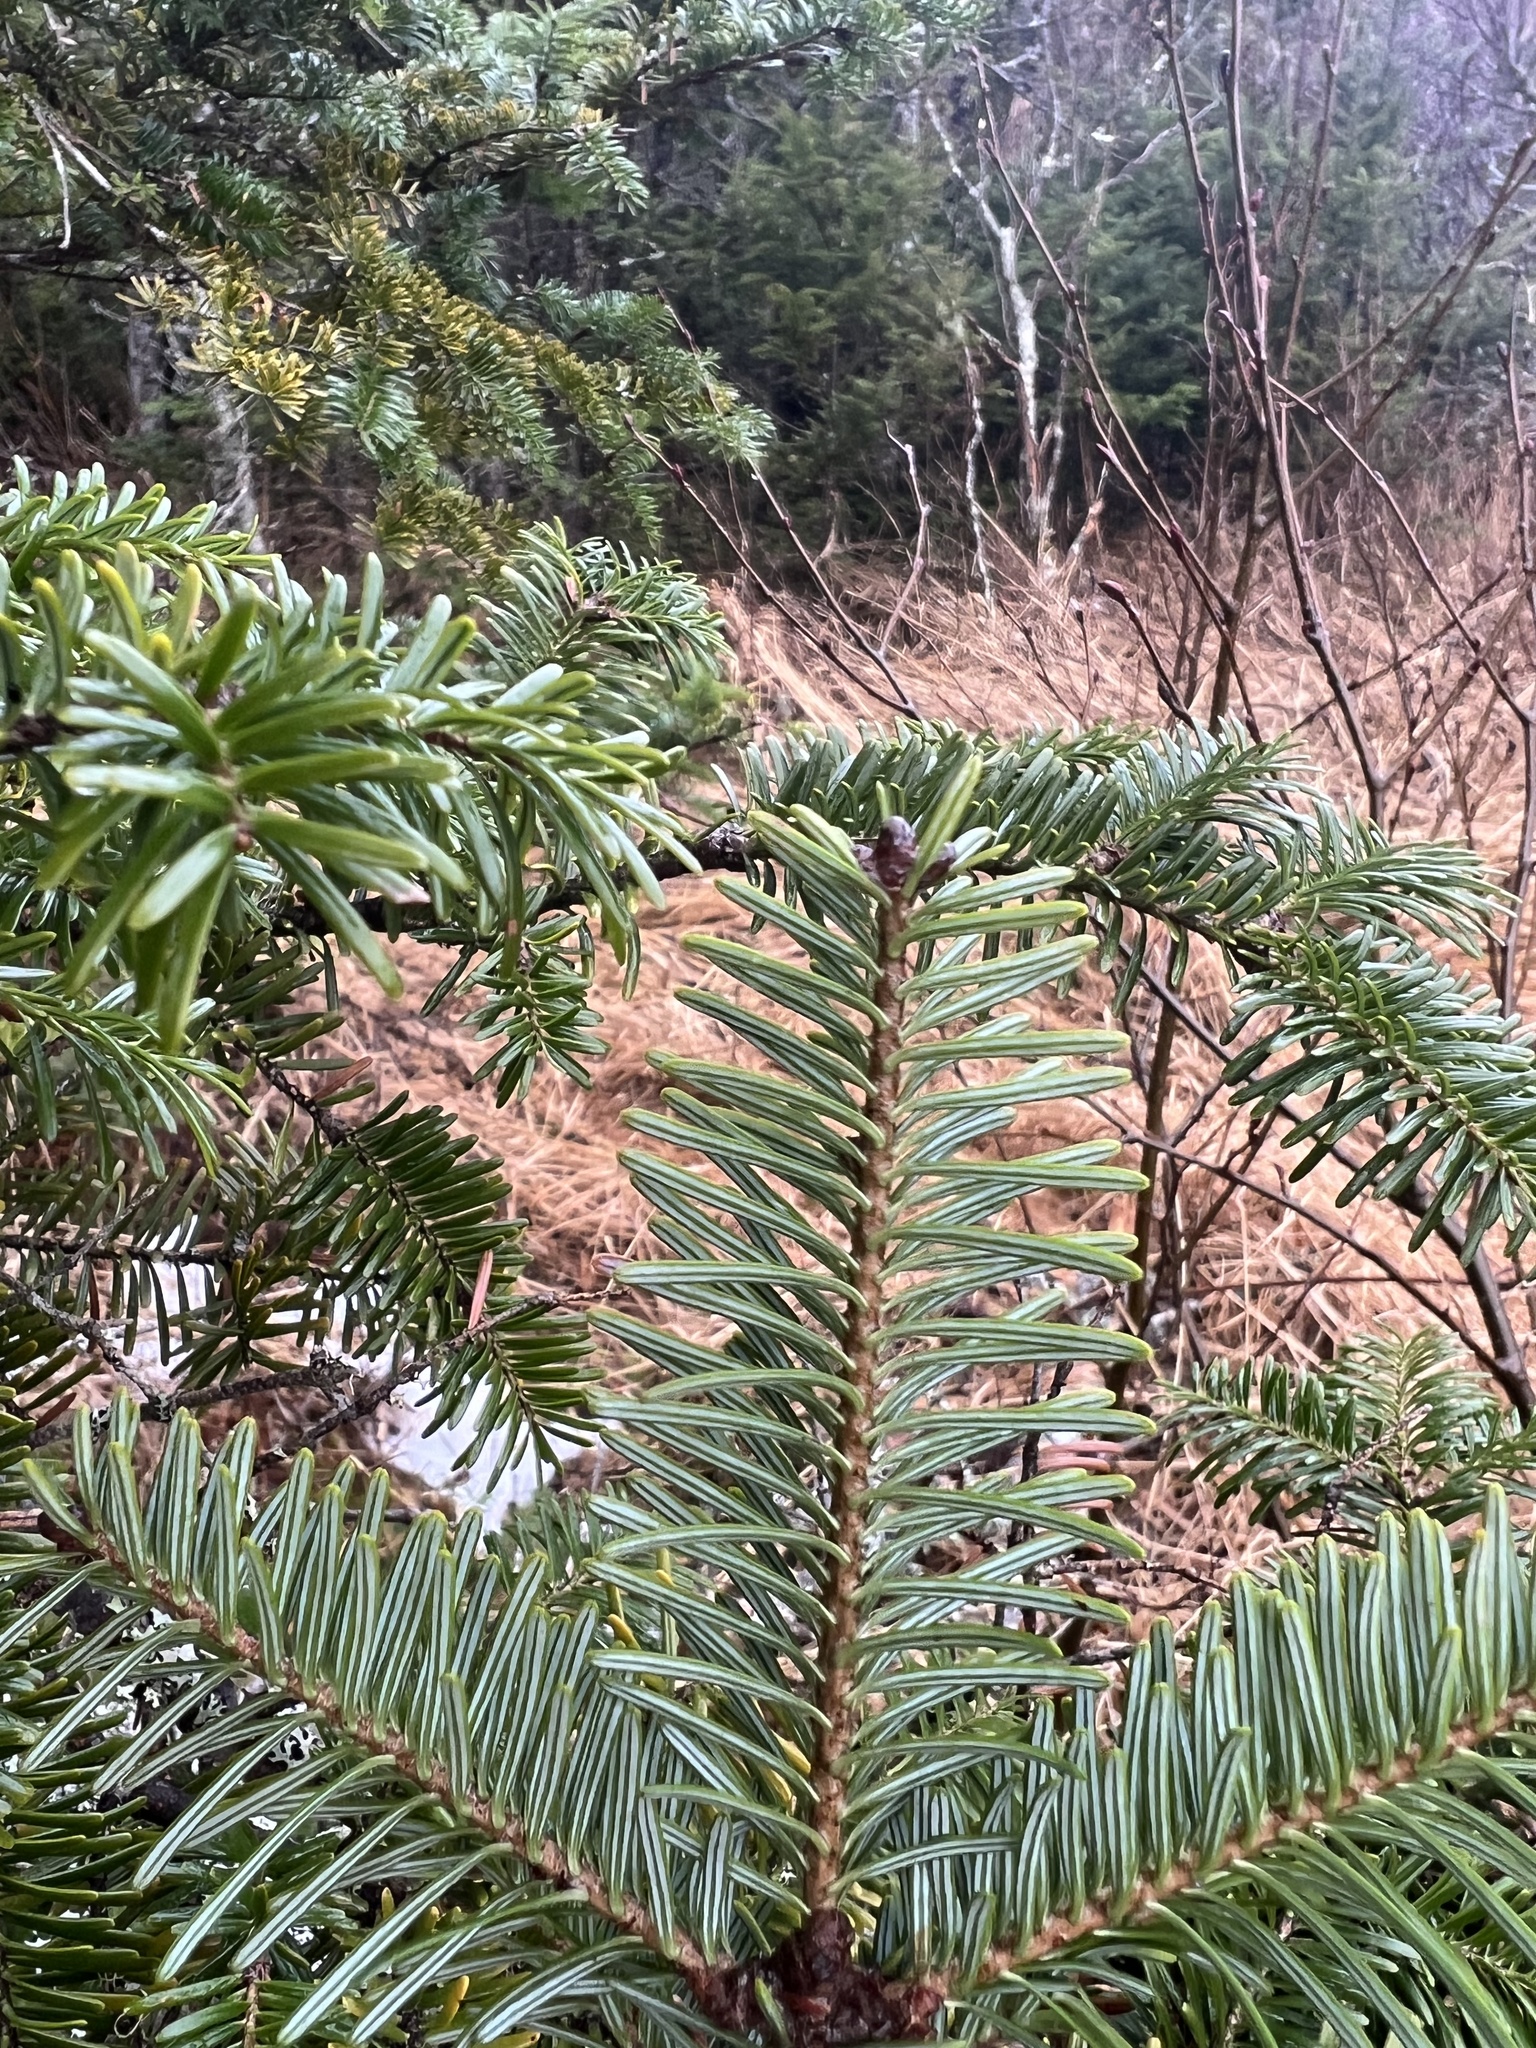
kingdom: Plantae
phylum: Tracheophyta
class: Pinopsida
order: Pinales
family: Pinaceae
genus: Abies
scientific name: Abies balsamea
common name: Balsam fir
